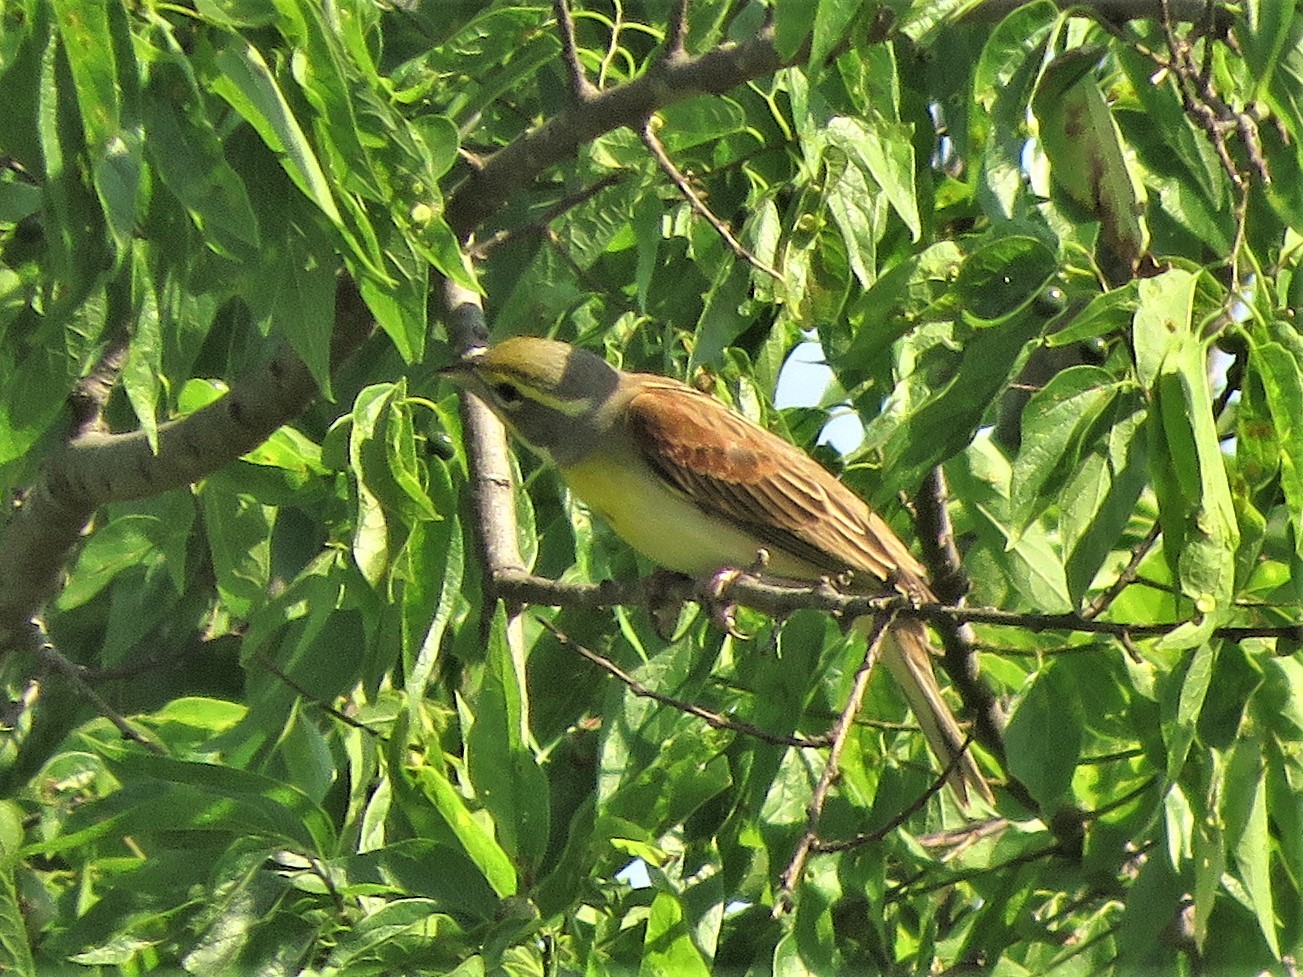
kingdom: Animalia
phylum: Chordata
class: Aves
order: Passeriformes
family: Cardinalidae
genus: Spiza
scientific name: Spiza americana
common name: Dickcissel
